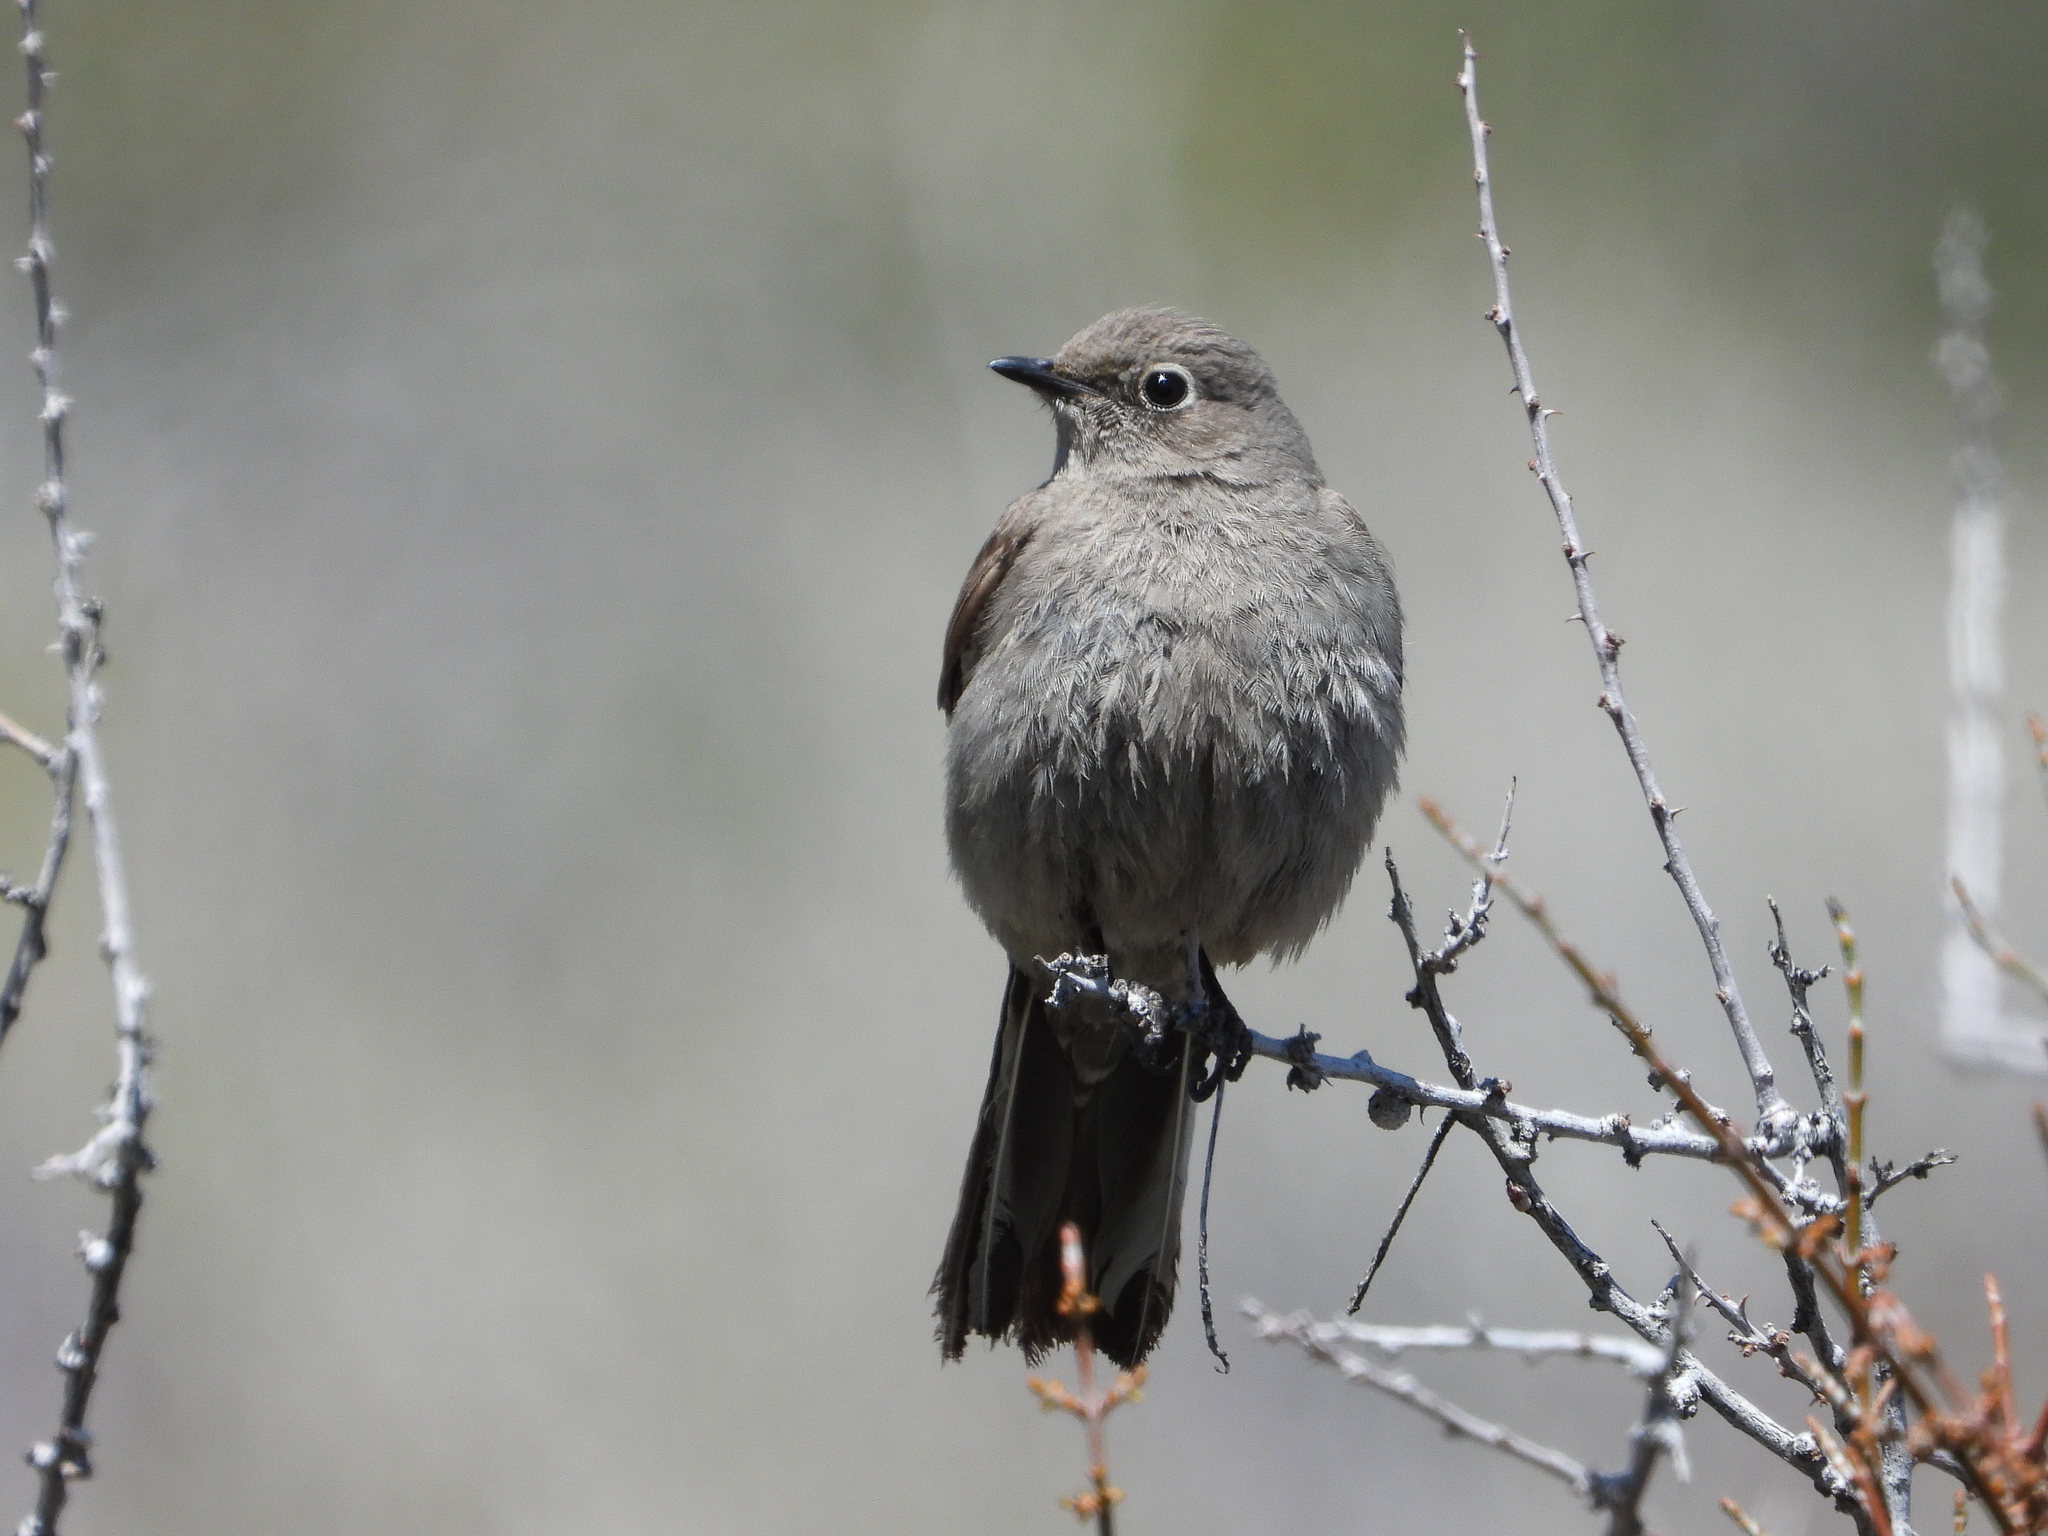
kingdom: Animalia
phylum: Chordata
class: Aves
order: Passeriformes
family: Turdidae
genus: Myadestes
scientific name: Myadestes townsendi
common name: Townsend's solitaire
